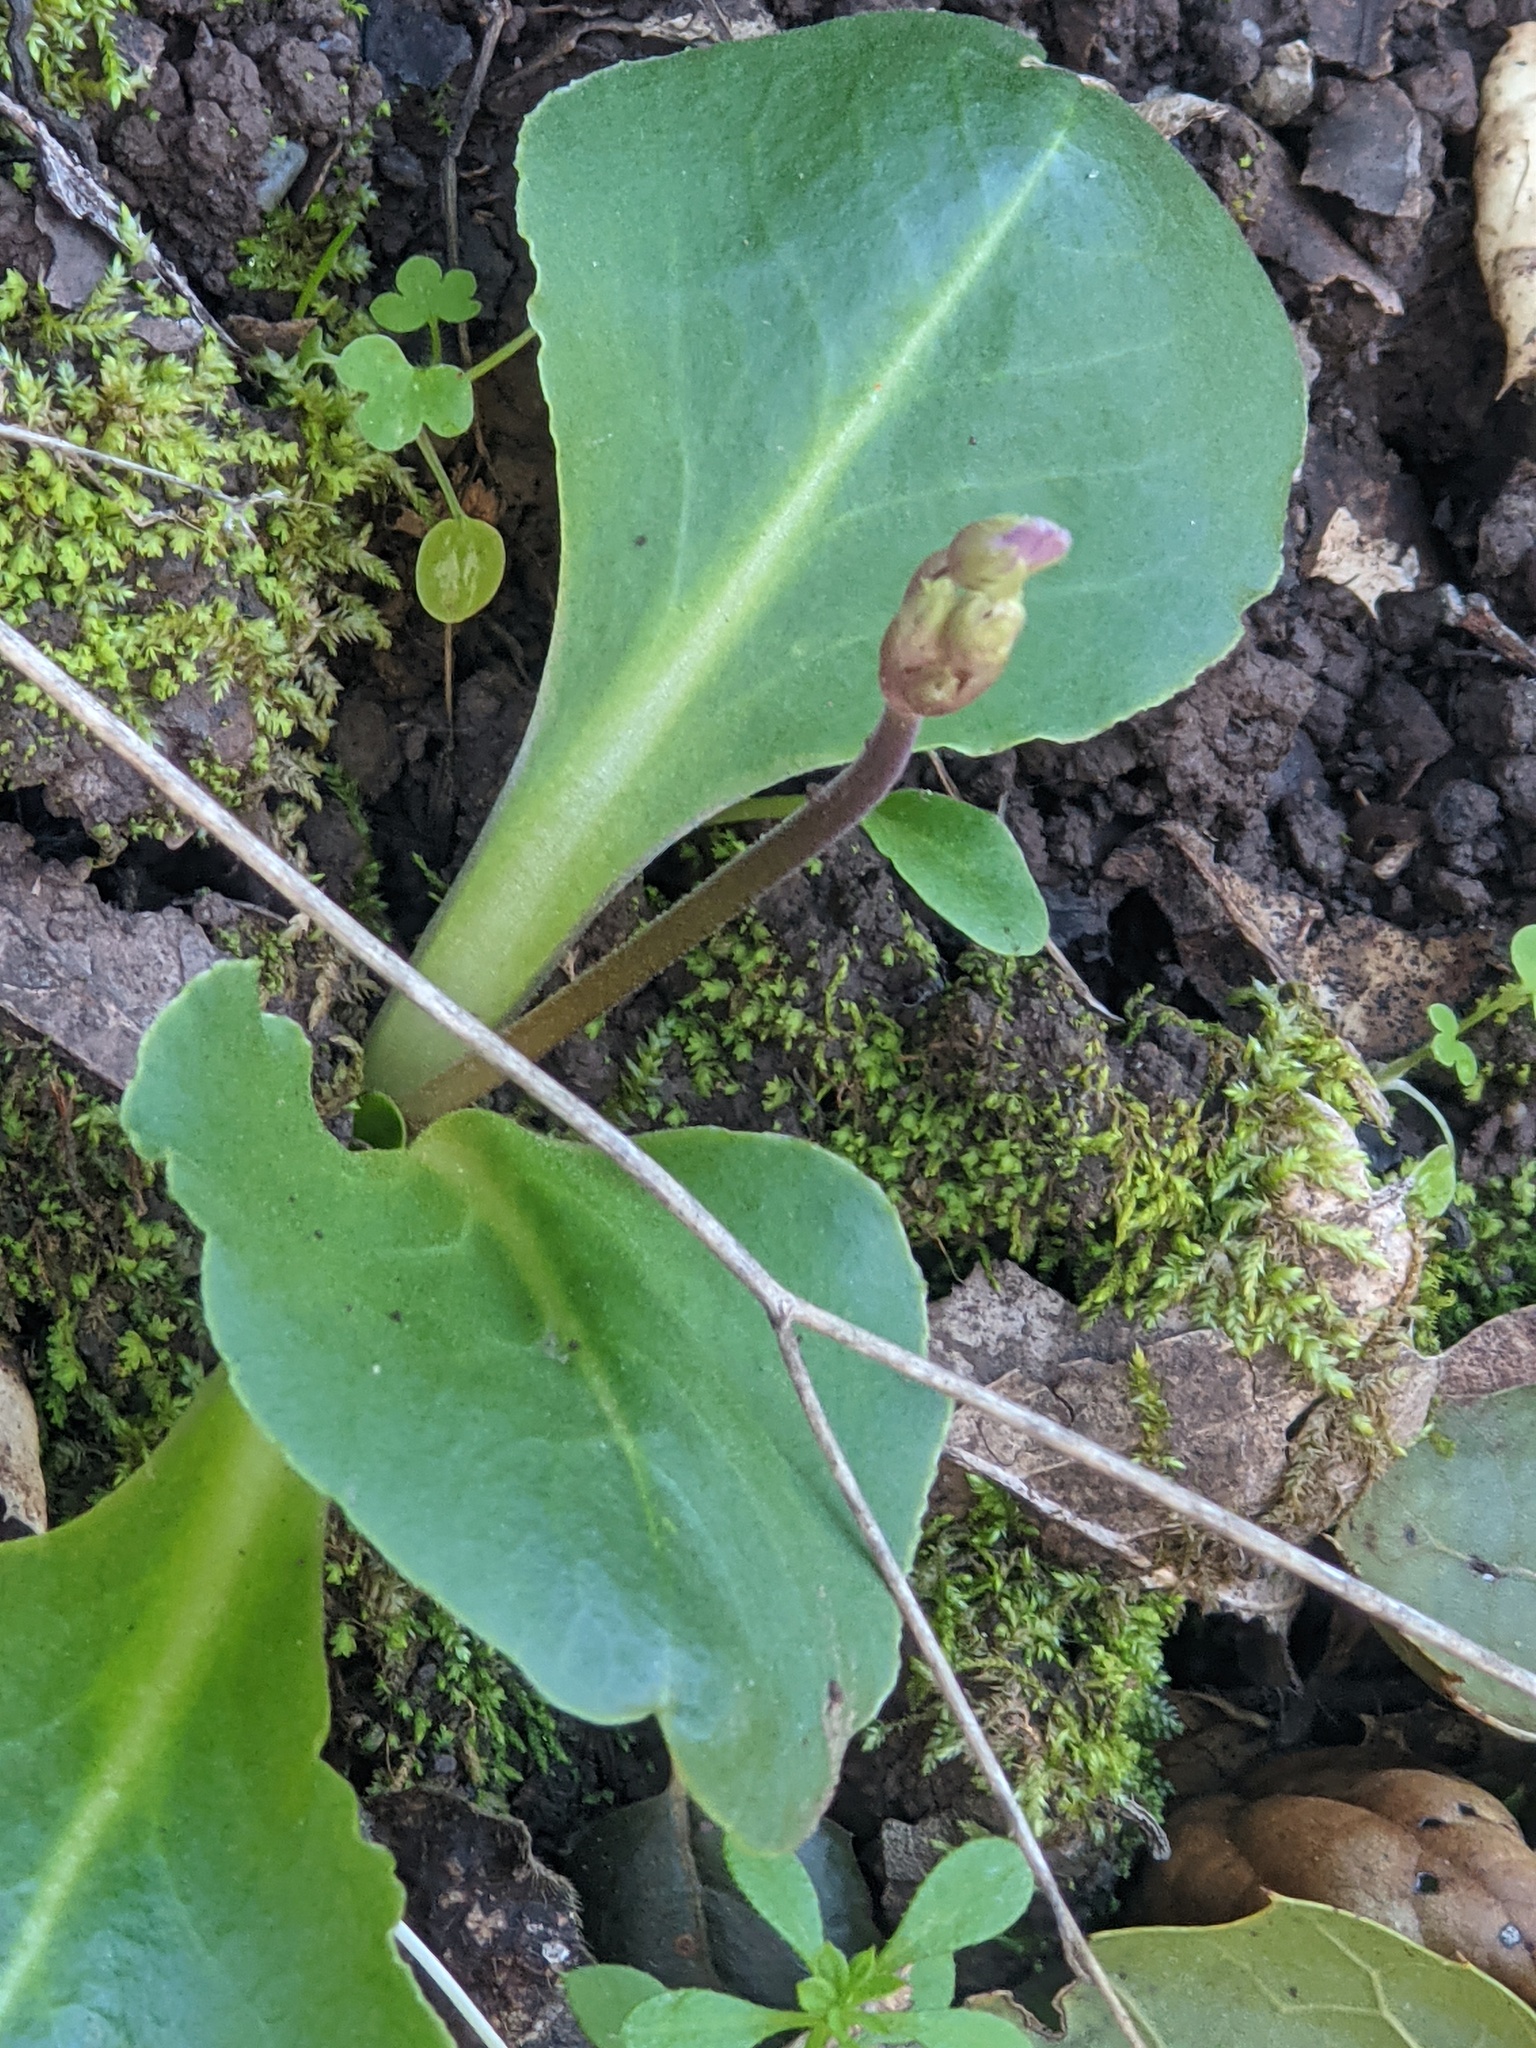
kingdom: Plantae
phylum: Tracheophyta
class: Magnoliopsida
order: Ericales
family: Primulaceae
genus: Dodecatheon
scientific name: Dodecatheon hendersonii
